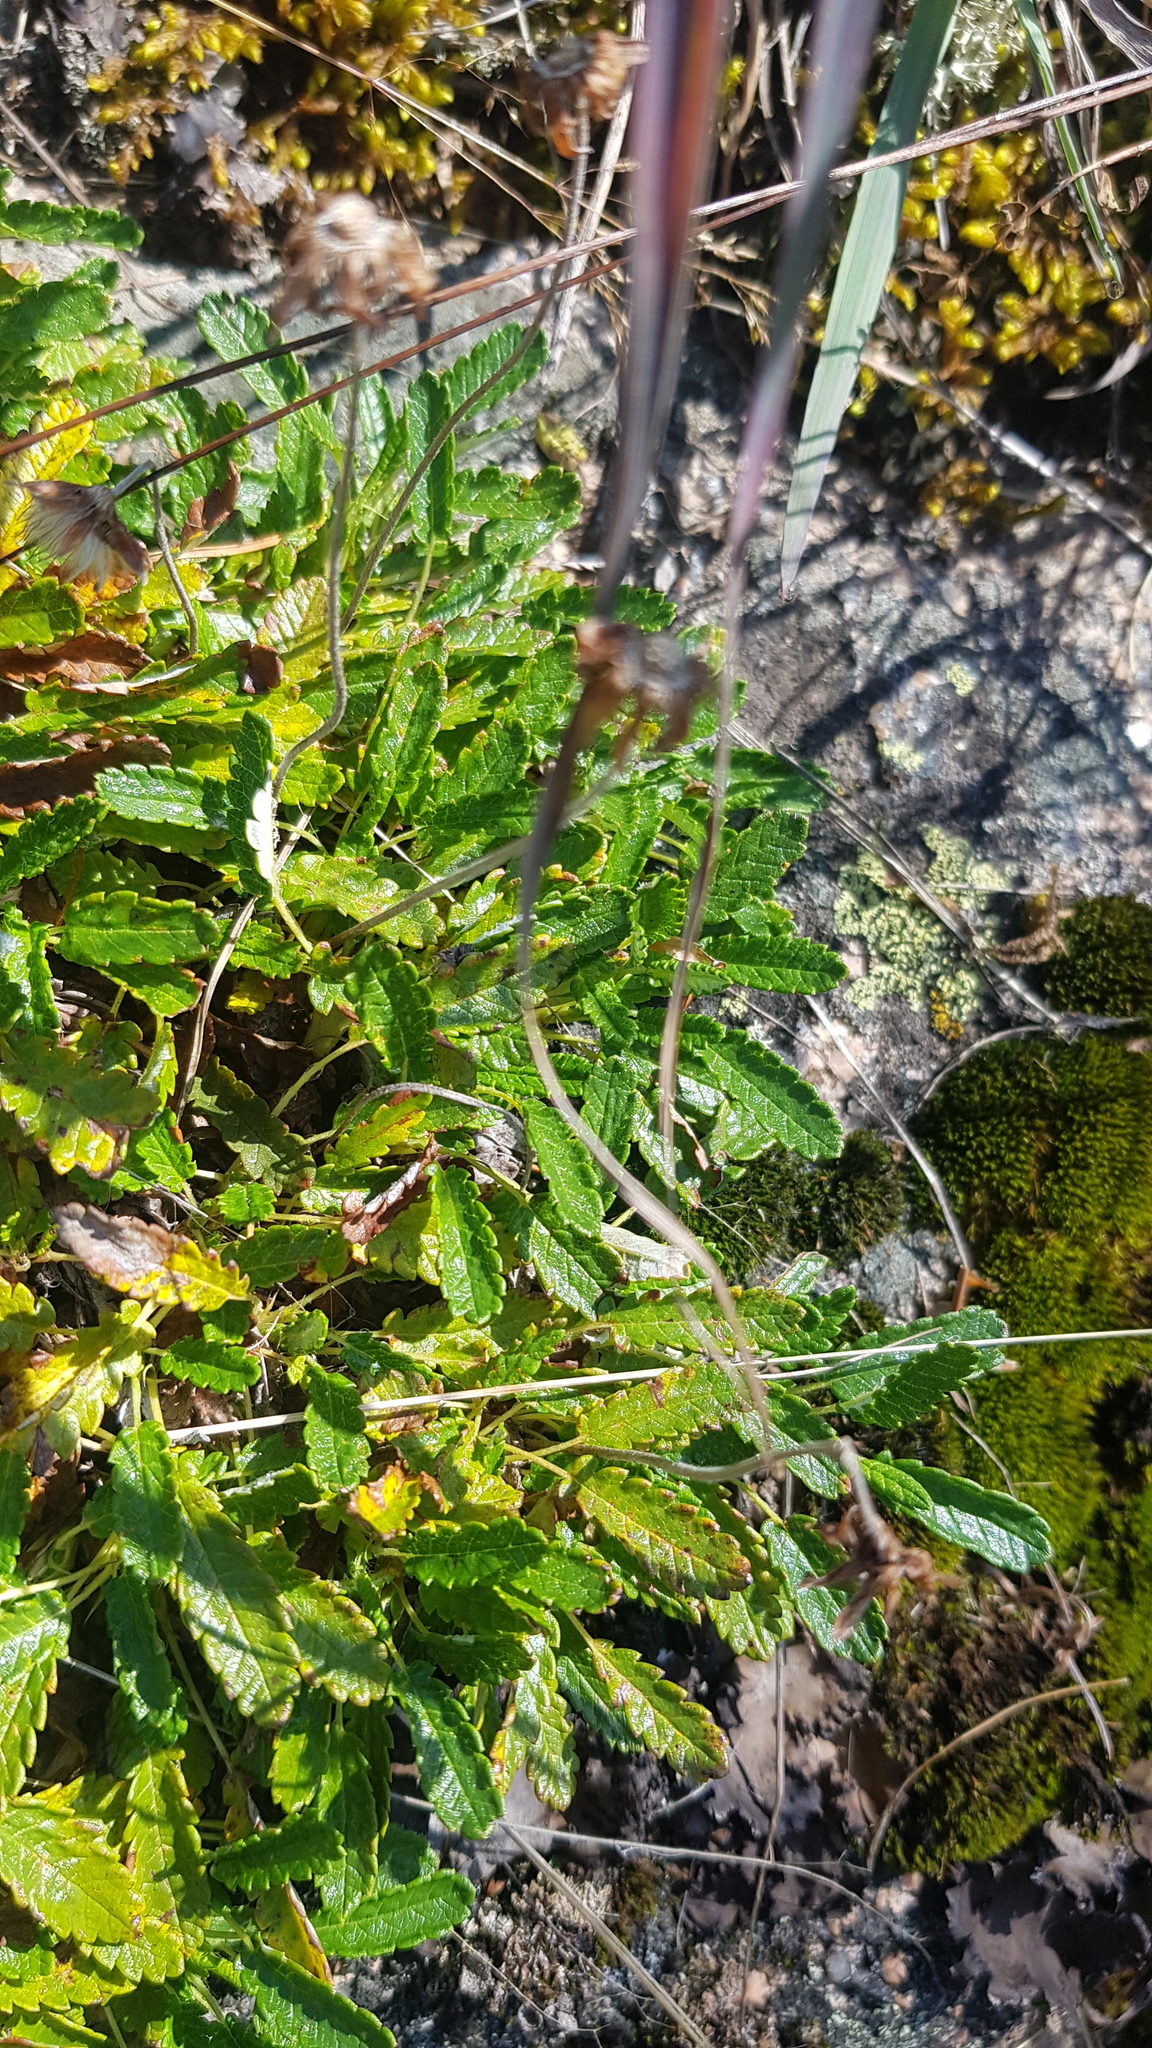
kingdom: Plantae
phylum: Tracheophyta
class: Magnoliopsida
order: Rosales
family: Rosaceae
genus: Dryas
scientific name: Dryas octopetala
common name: Eight-petal mountain-avens
